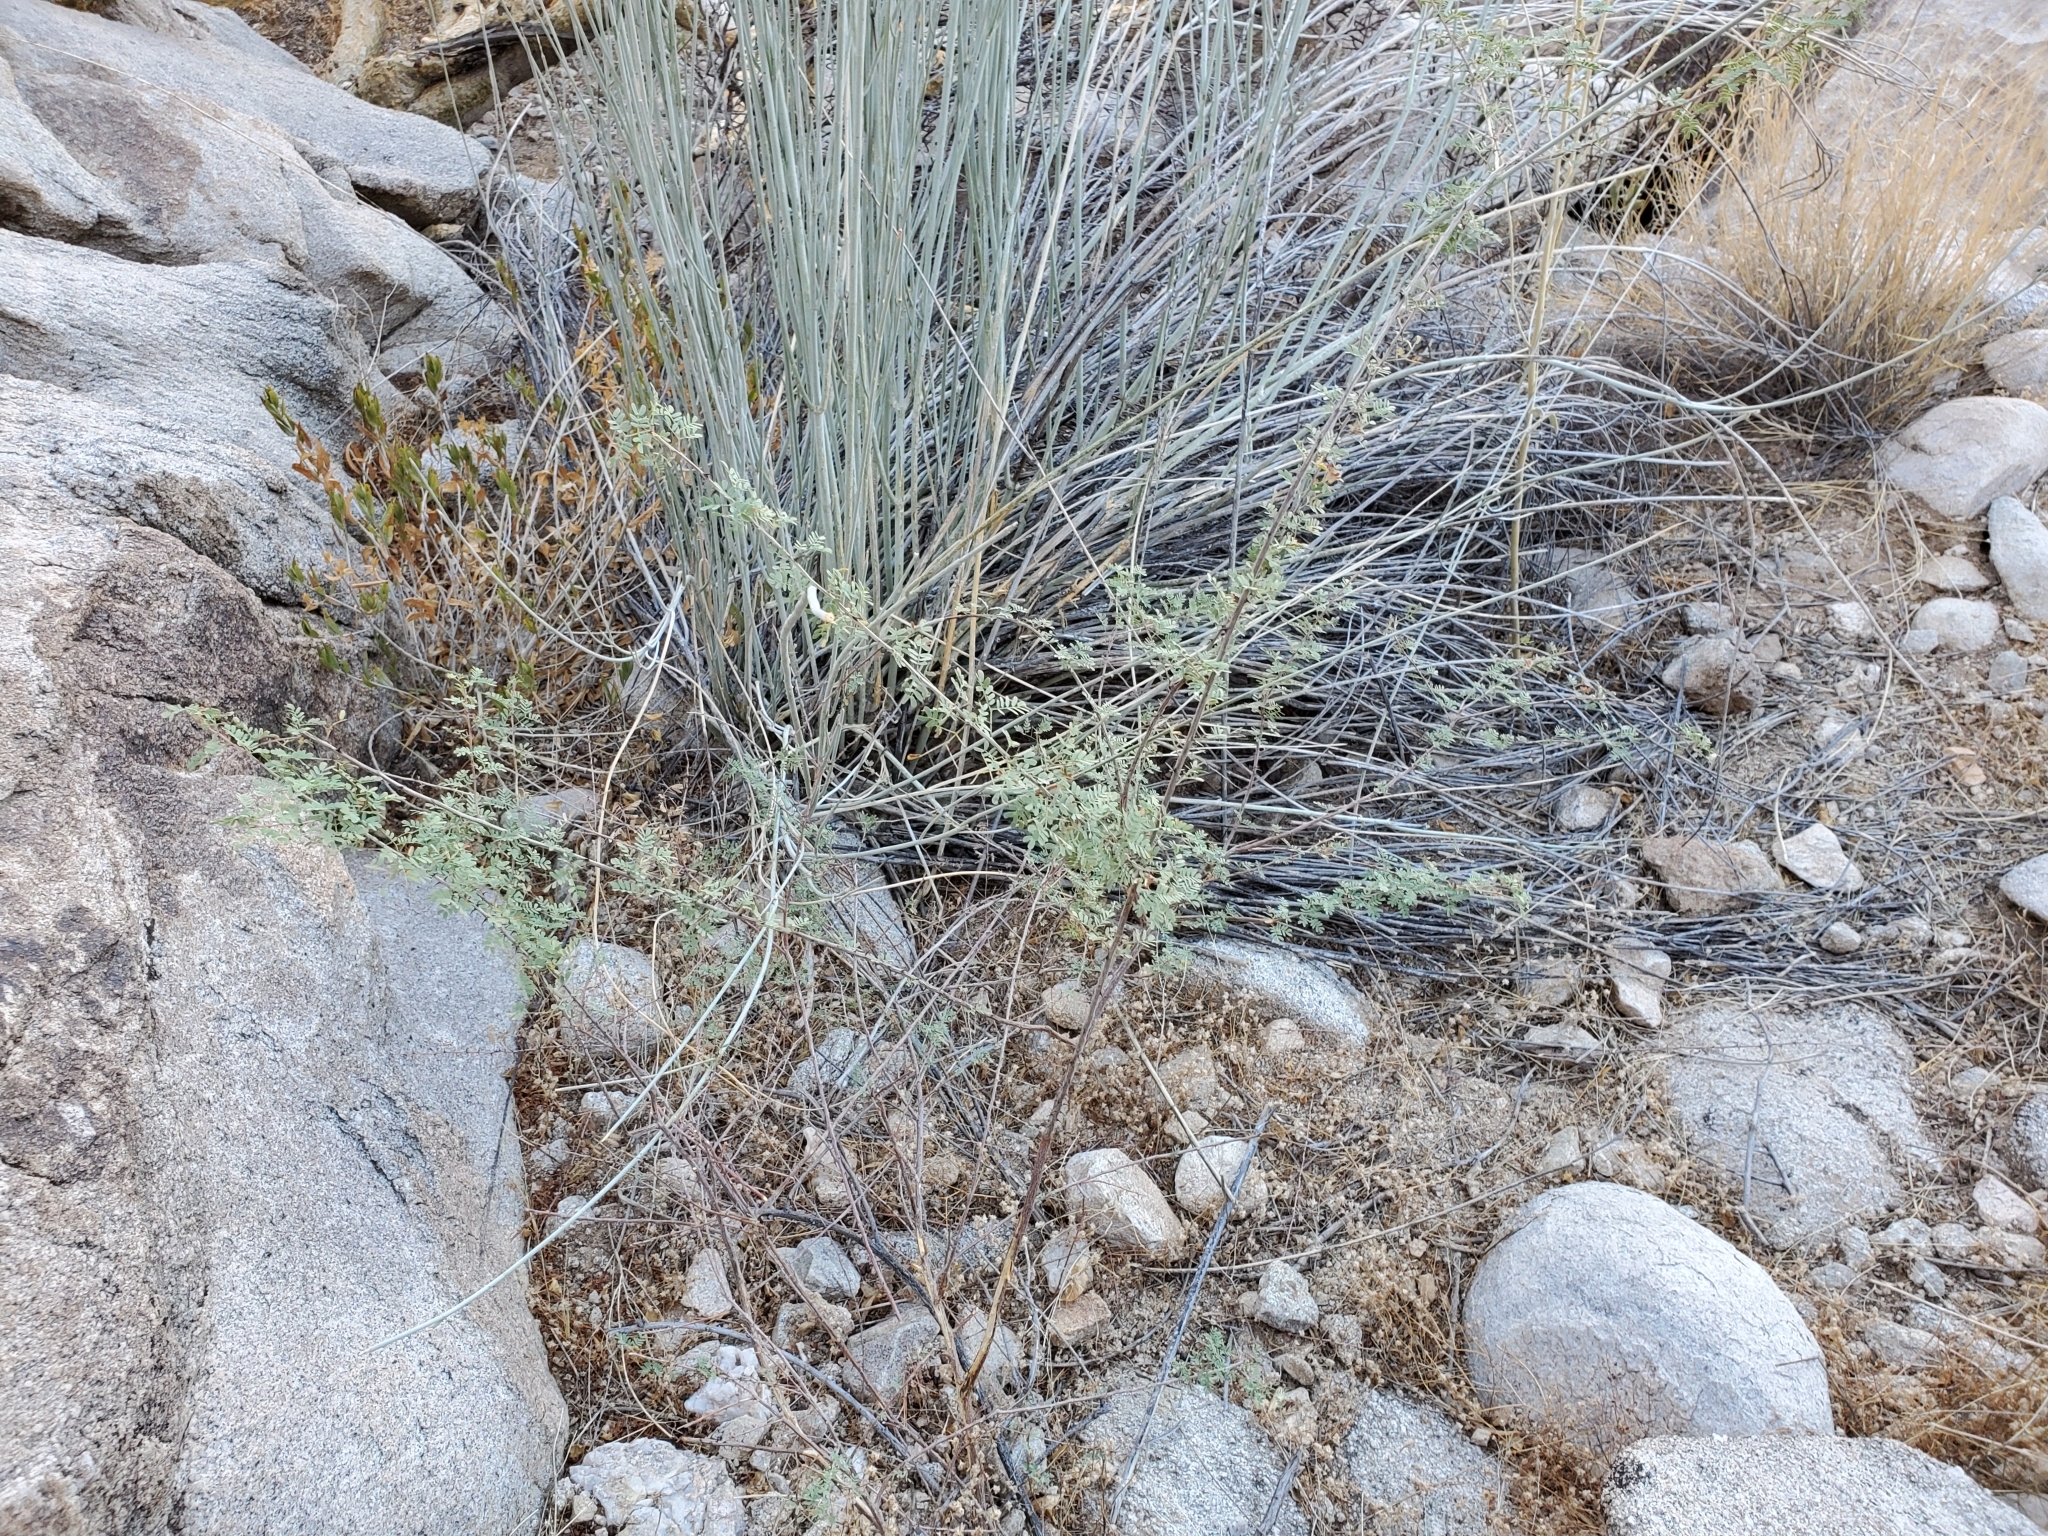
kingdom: Plantae
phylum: Tracheophyta
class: Magnoliopsida
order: Fabales
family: Fabaceae
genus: Senegalia
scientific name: Senegalia greggii
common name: Texas-mimosa
